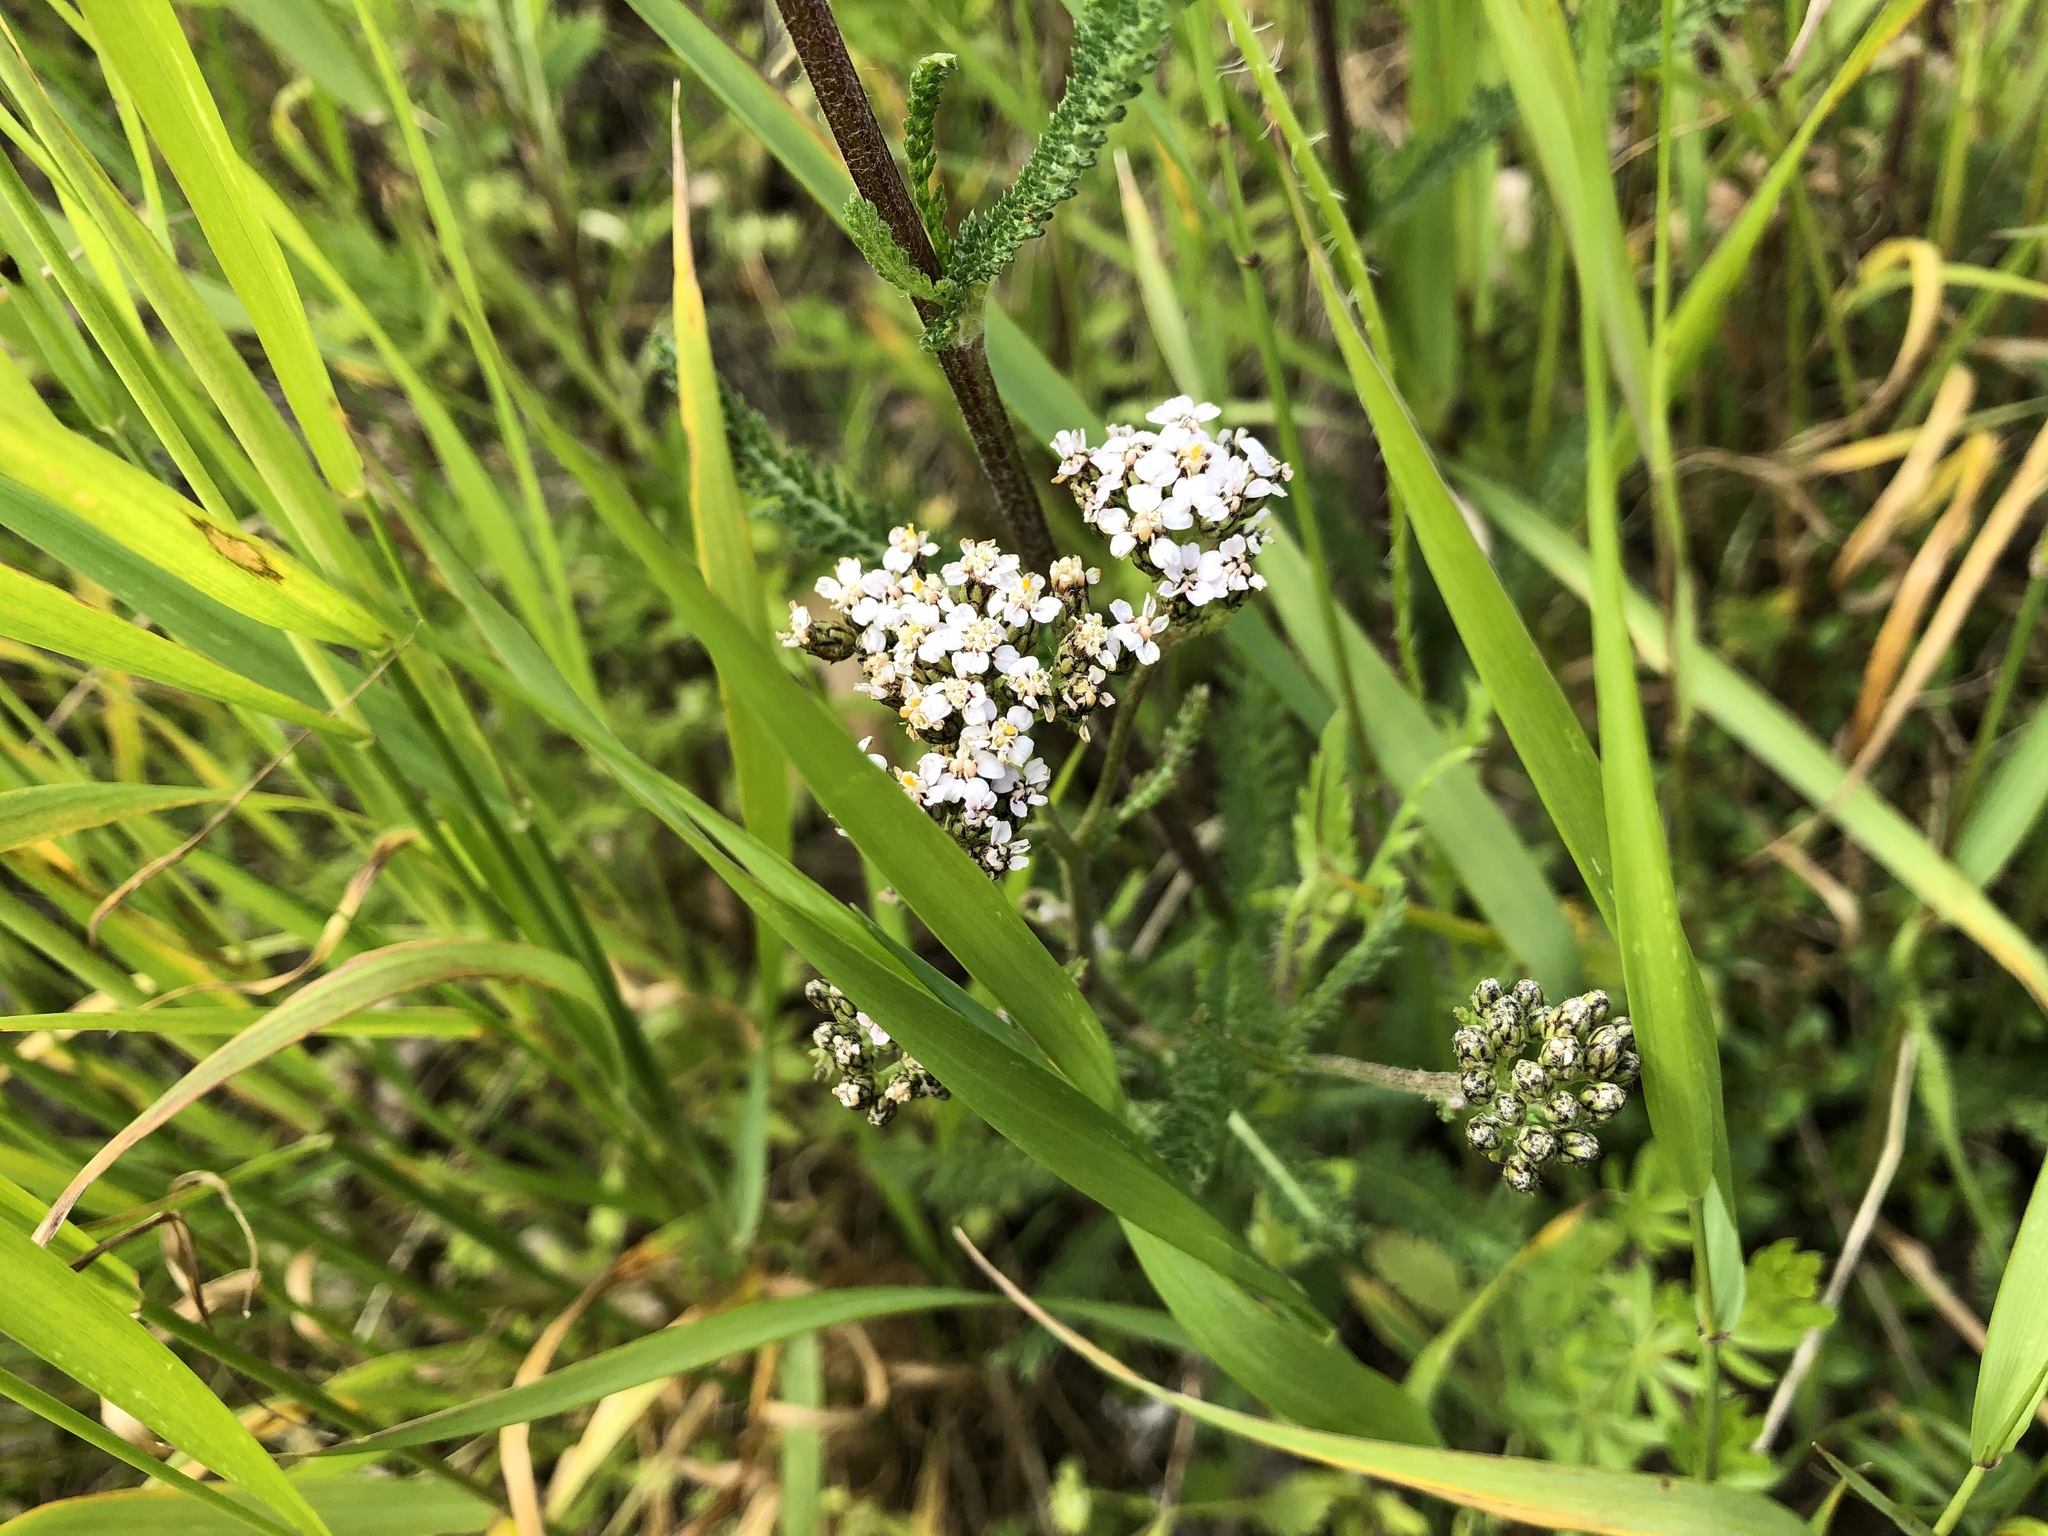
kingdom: Plantae
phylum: Tracheophyta
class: Magnoliopsida
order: Asterales
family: Asteraceae
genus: Achillea
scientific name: Achillea millefolium
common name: Yarrow
